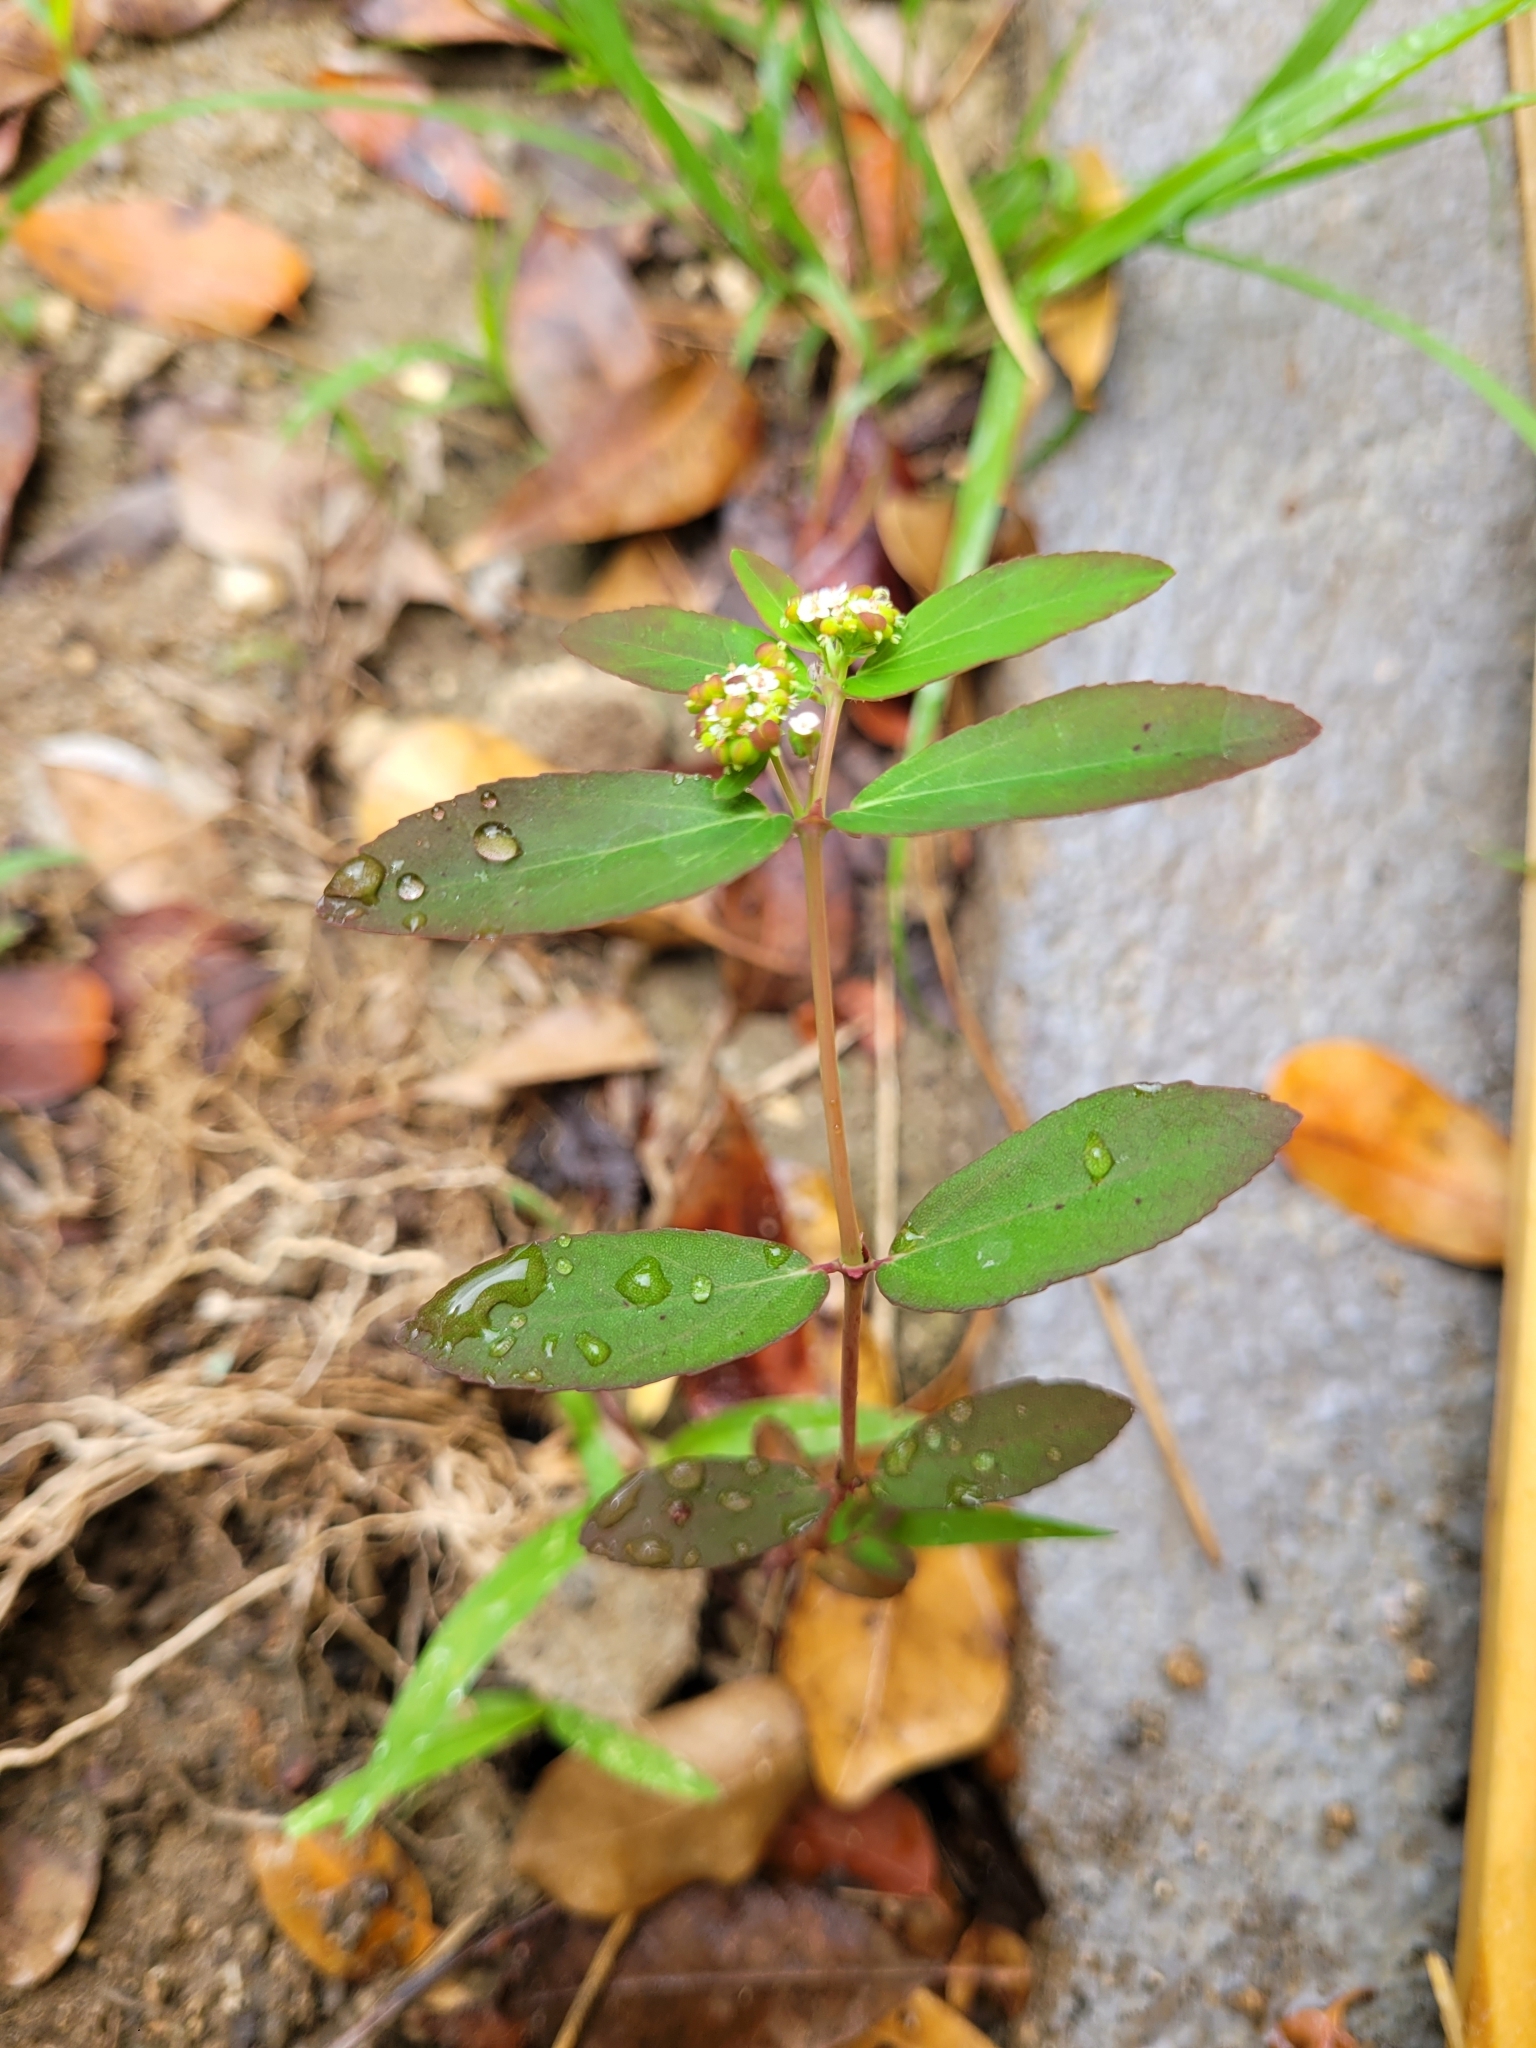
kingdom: Plantae
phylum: Tracheophyta
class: Magnoliopsida
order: Malpighiales
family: Euphorbiaceae
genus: Euphorbia
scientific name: Euphorbia hypericifolia
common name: Graceful sandmat
